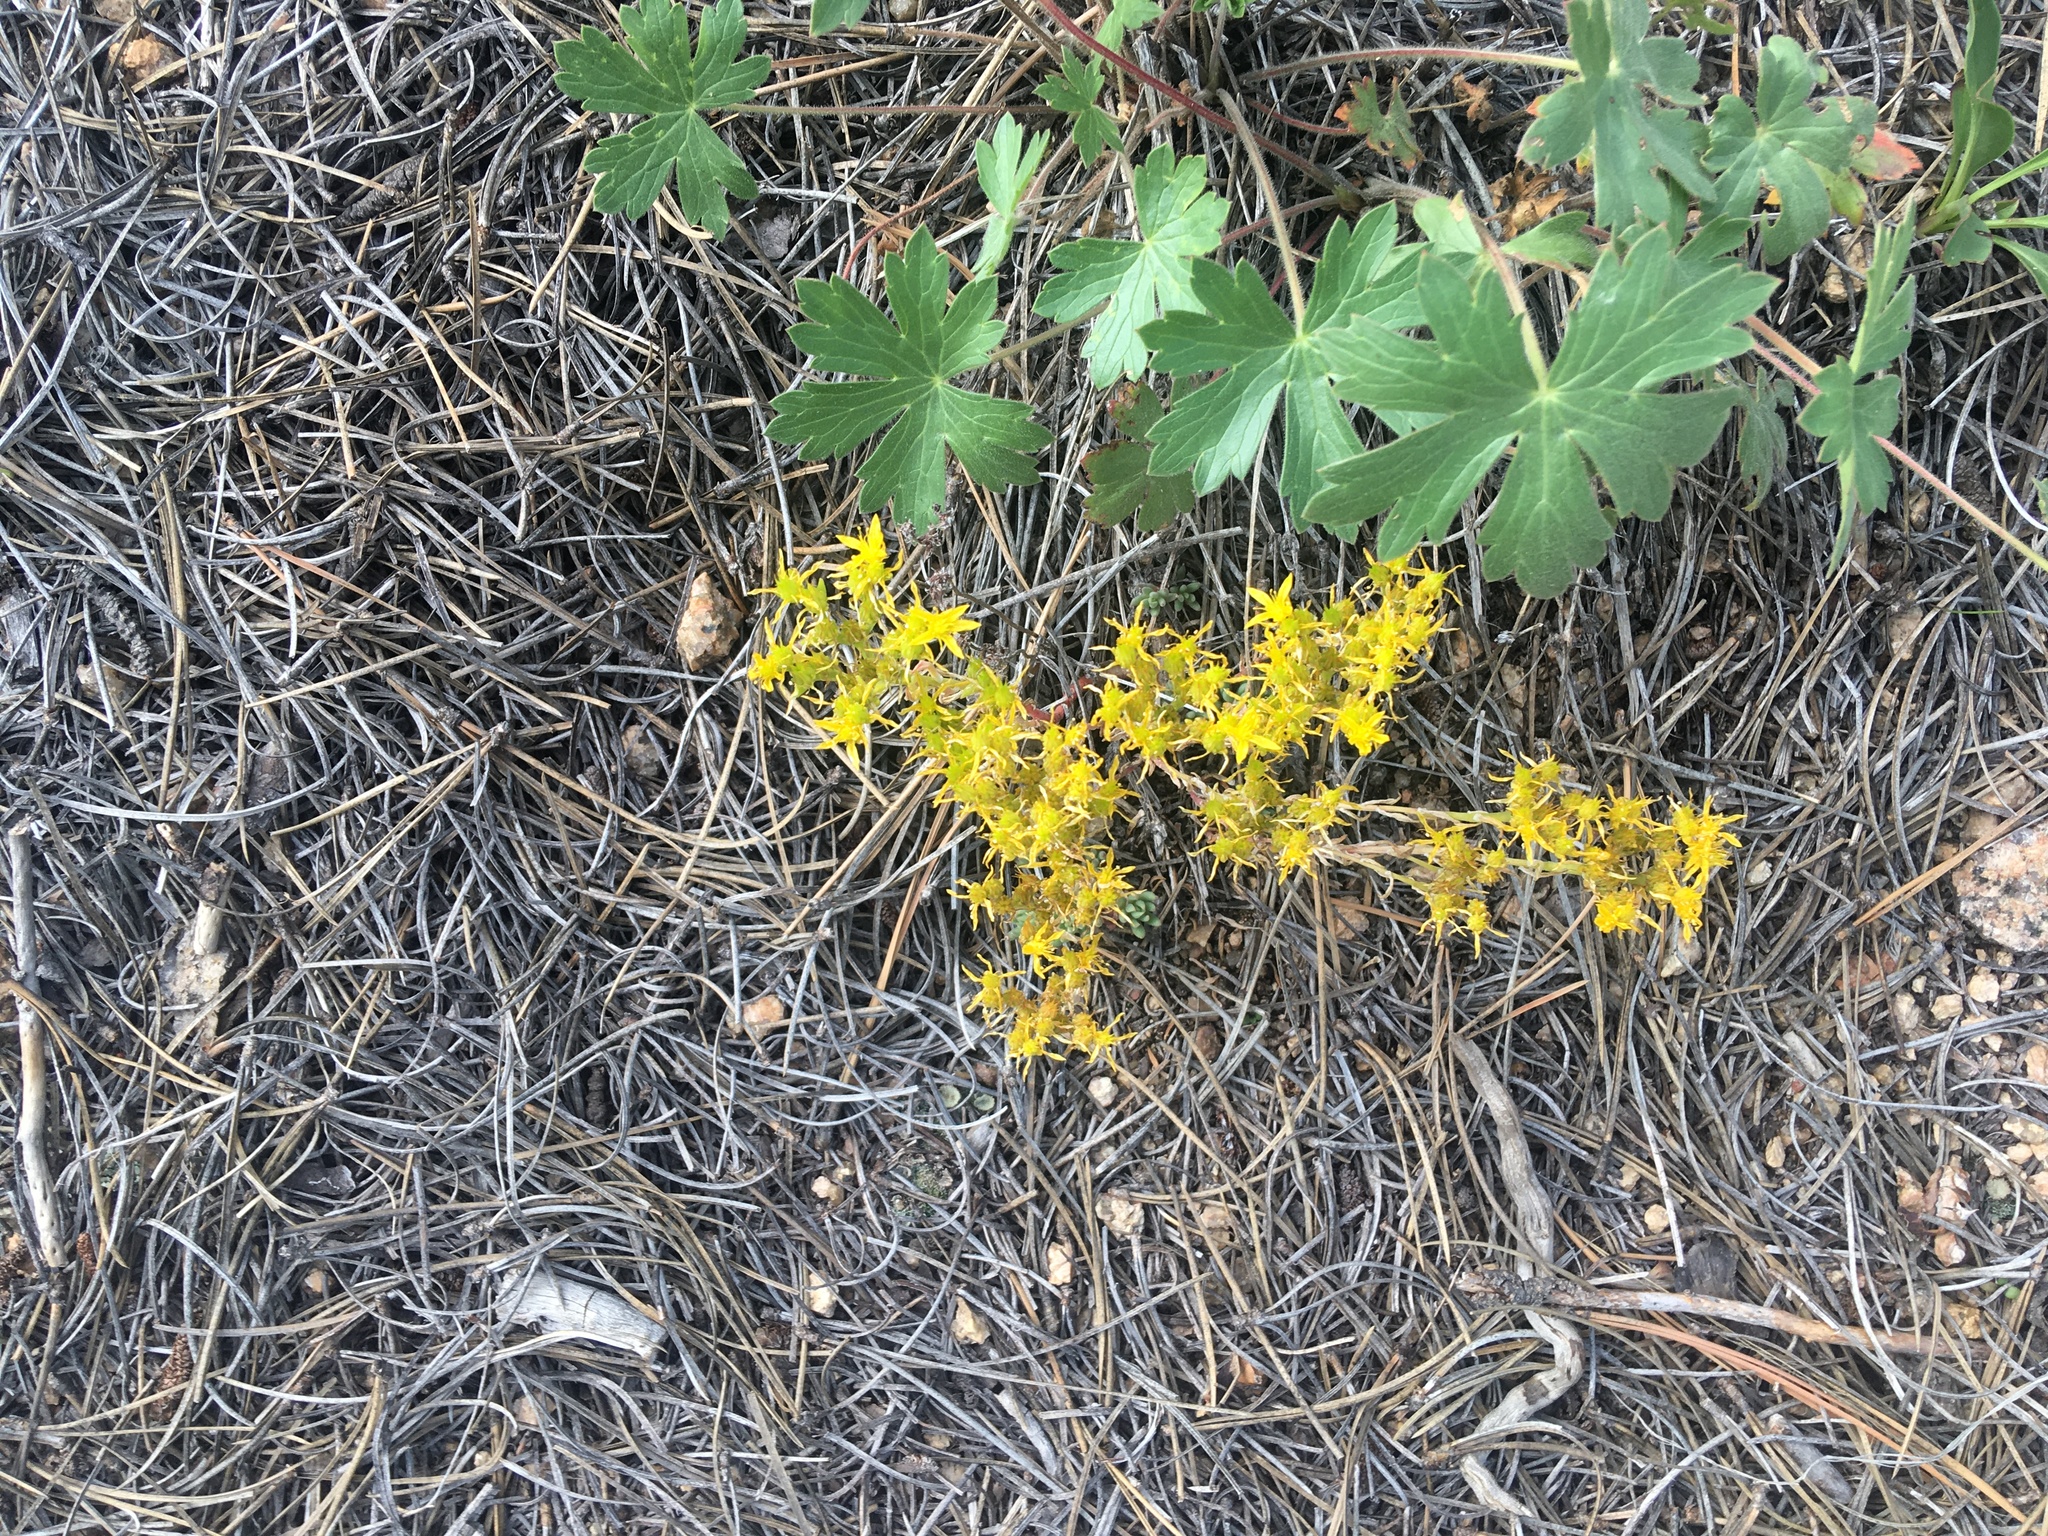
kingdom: Plantae
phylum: Tracheophyta
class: Magnoliopsida
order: Saxifragales
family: Crassulaceae
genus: Sedum
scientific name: Sedum lanceolatum
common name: Common stonecrop
